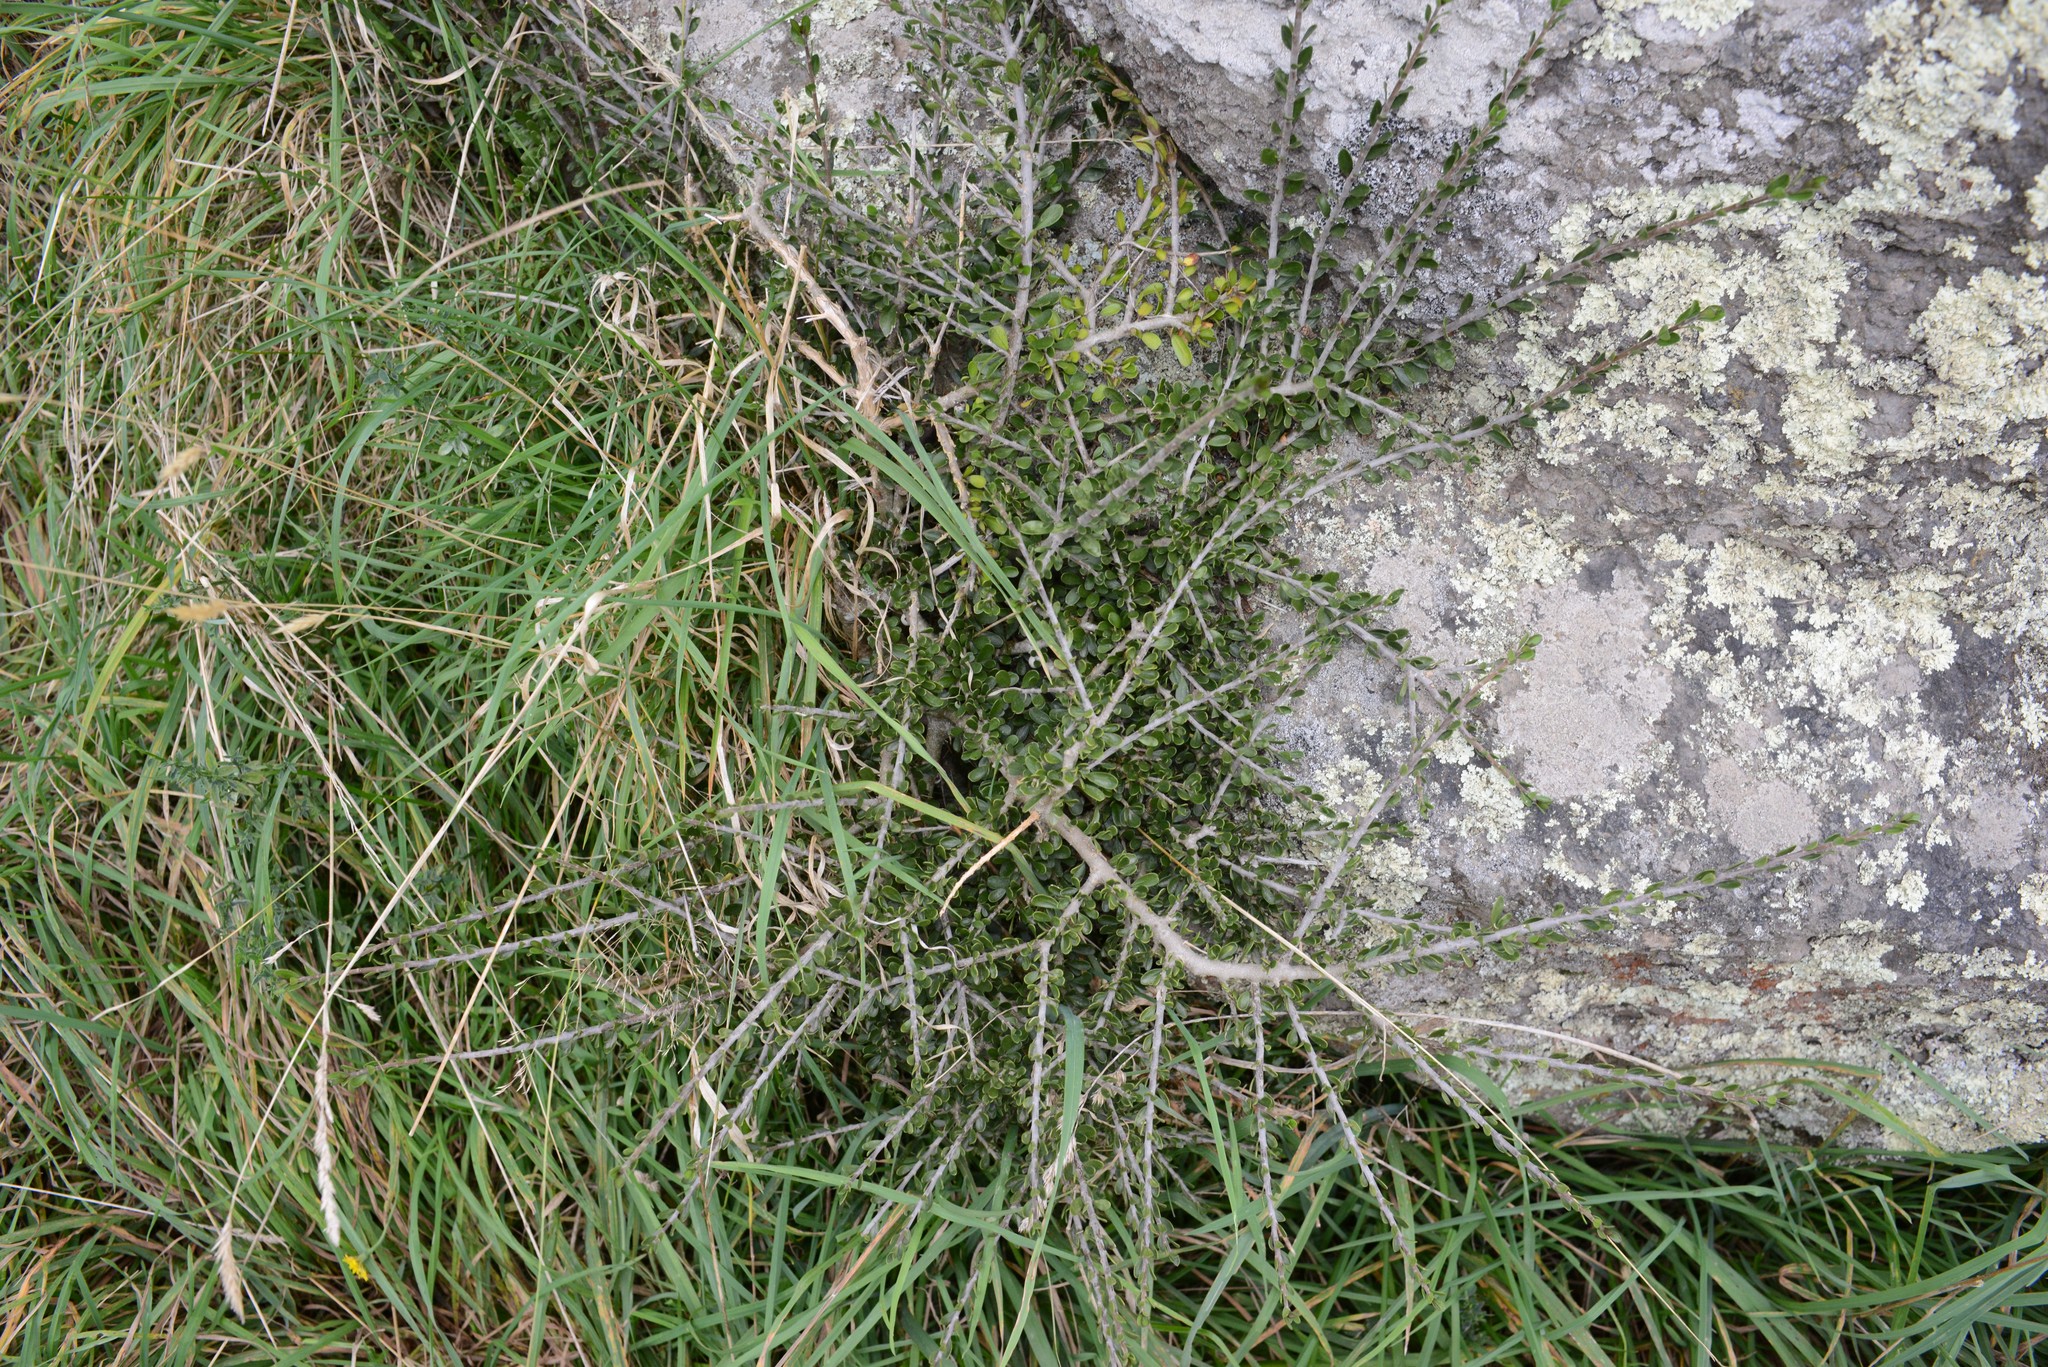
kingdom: Plantae
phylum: Tracheophyta
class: Magnoliopsida
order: Malpighiales
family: Violaceae
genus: Melicytus
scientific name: Melicytus alpinus
